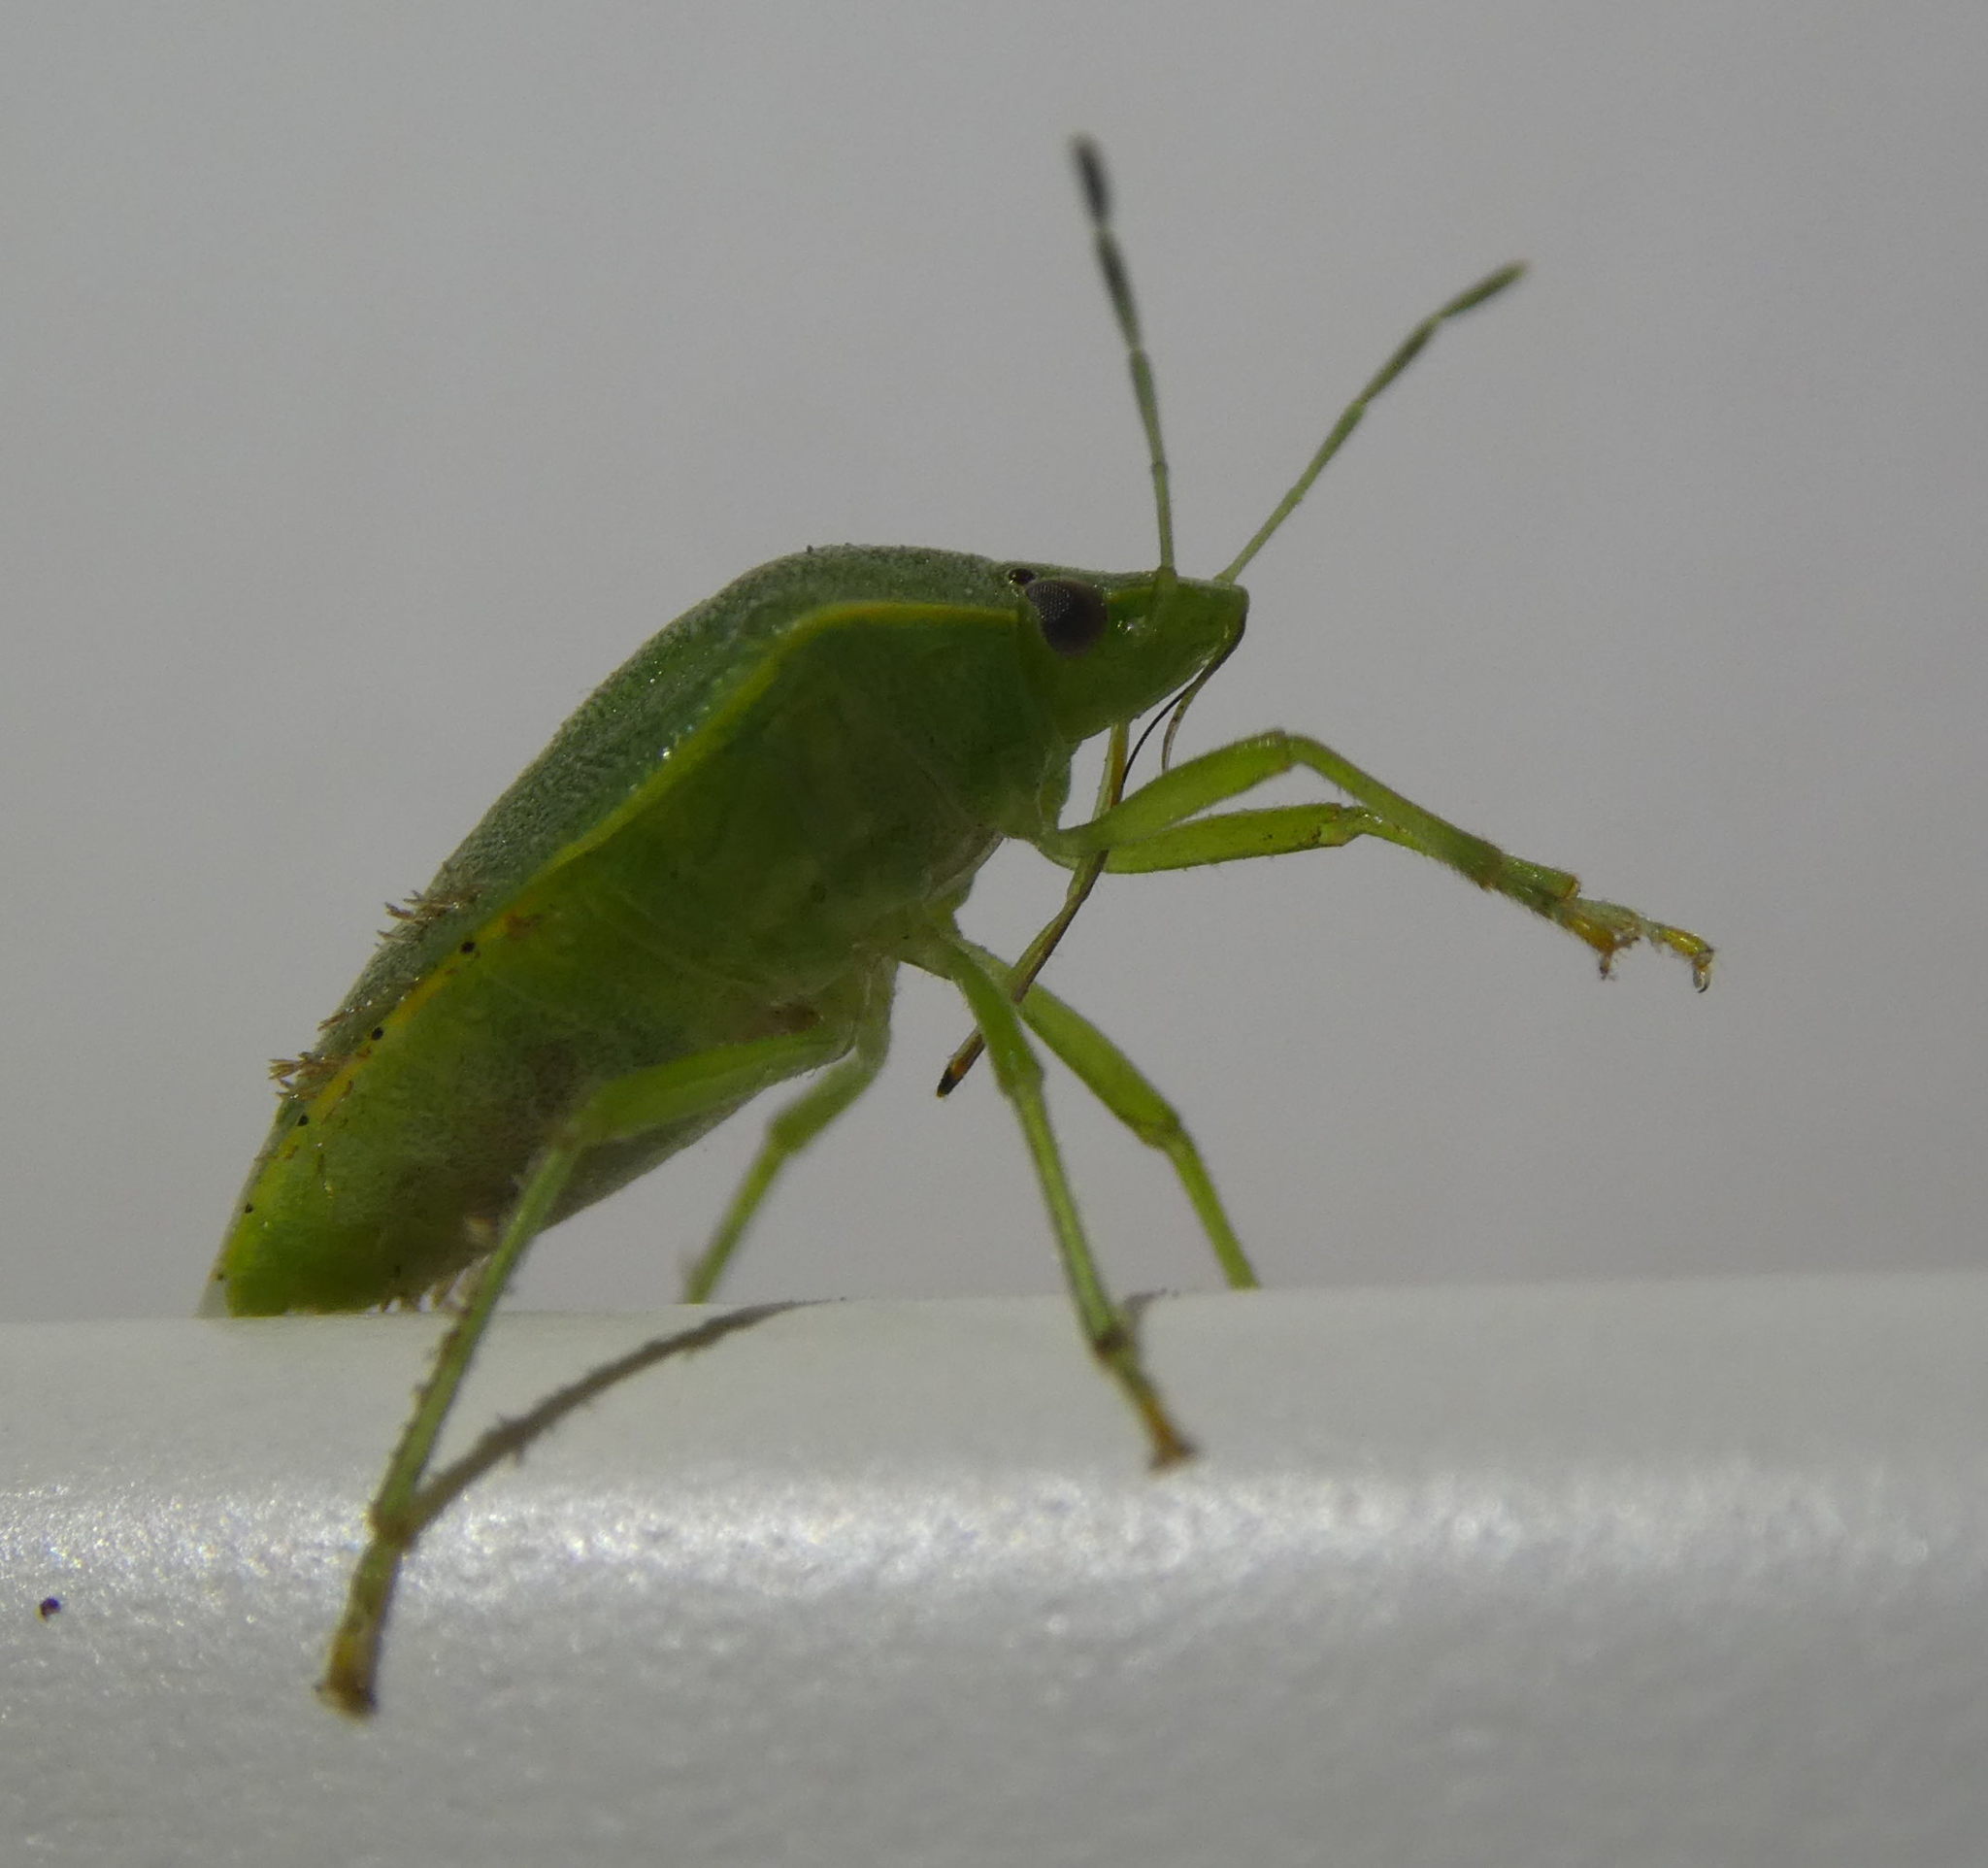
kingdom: Animalia
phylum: Arthropoda
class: Insecta
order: Hemiptera
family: Pentatomidae
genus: Acrosternum
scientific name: Acrosternum millierei
